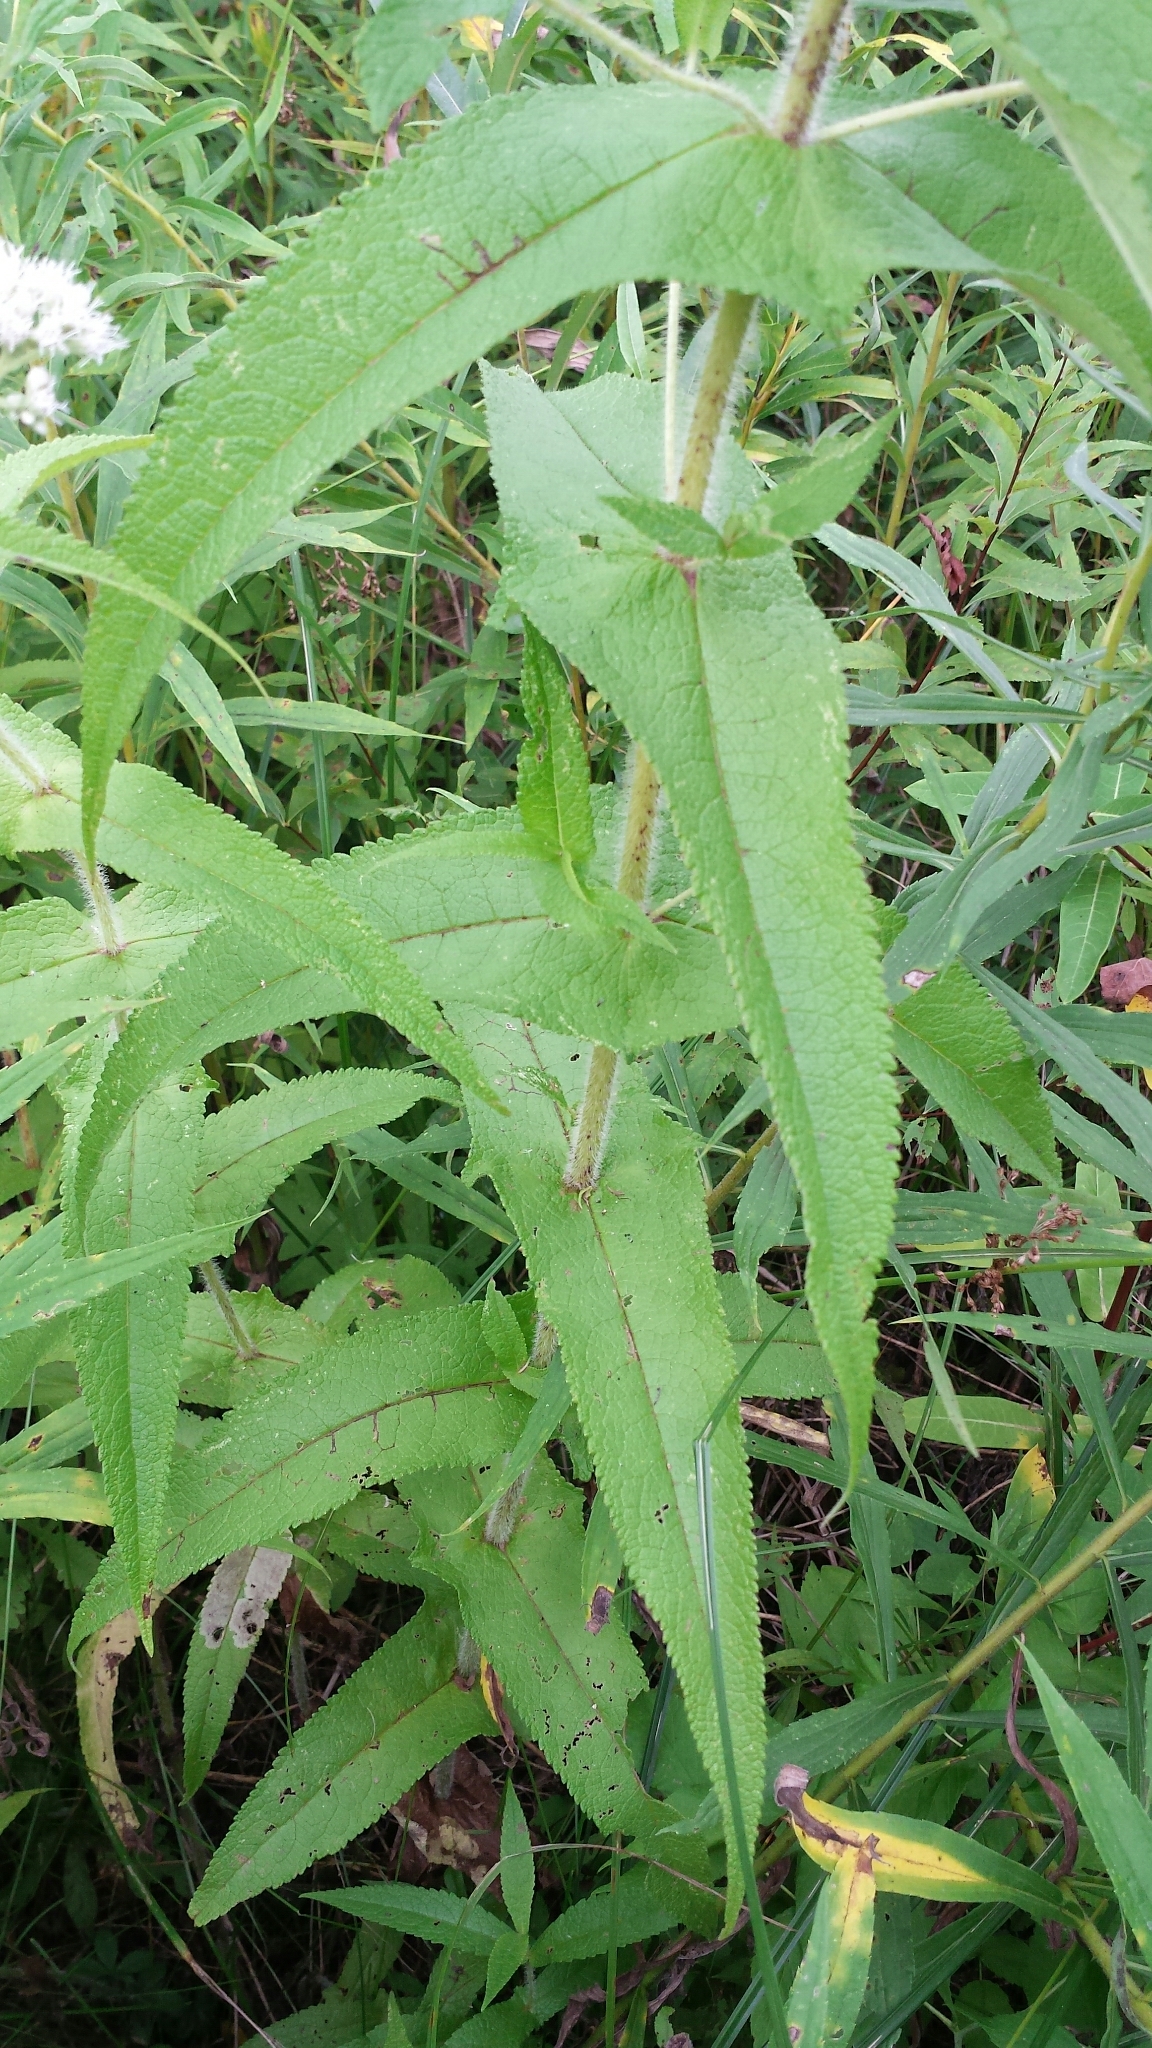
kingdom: Plantae
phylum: Tracheophyta
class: Magnoliopsida
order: Asterales
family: Asteraceae
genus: Eupatorium
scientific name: Eupatorium perfoliatum
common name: Boneset
